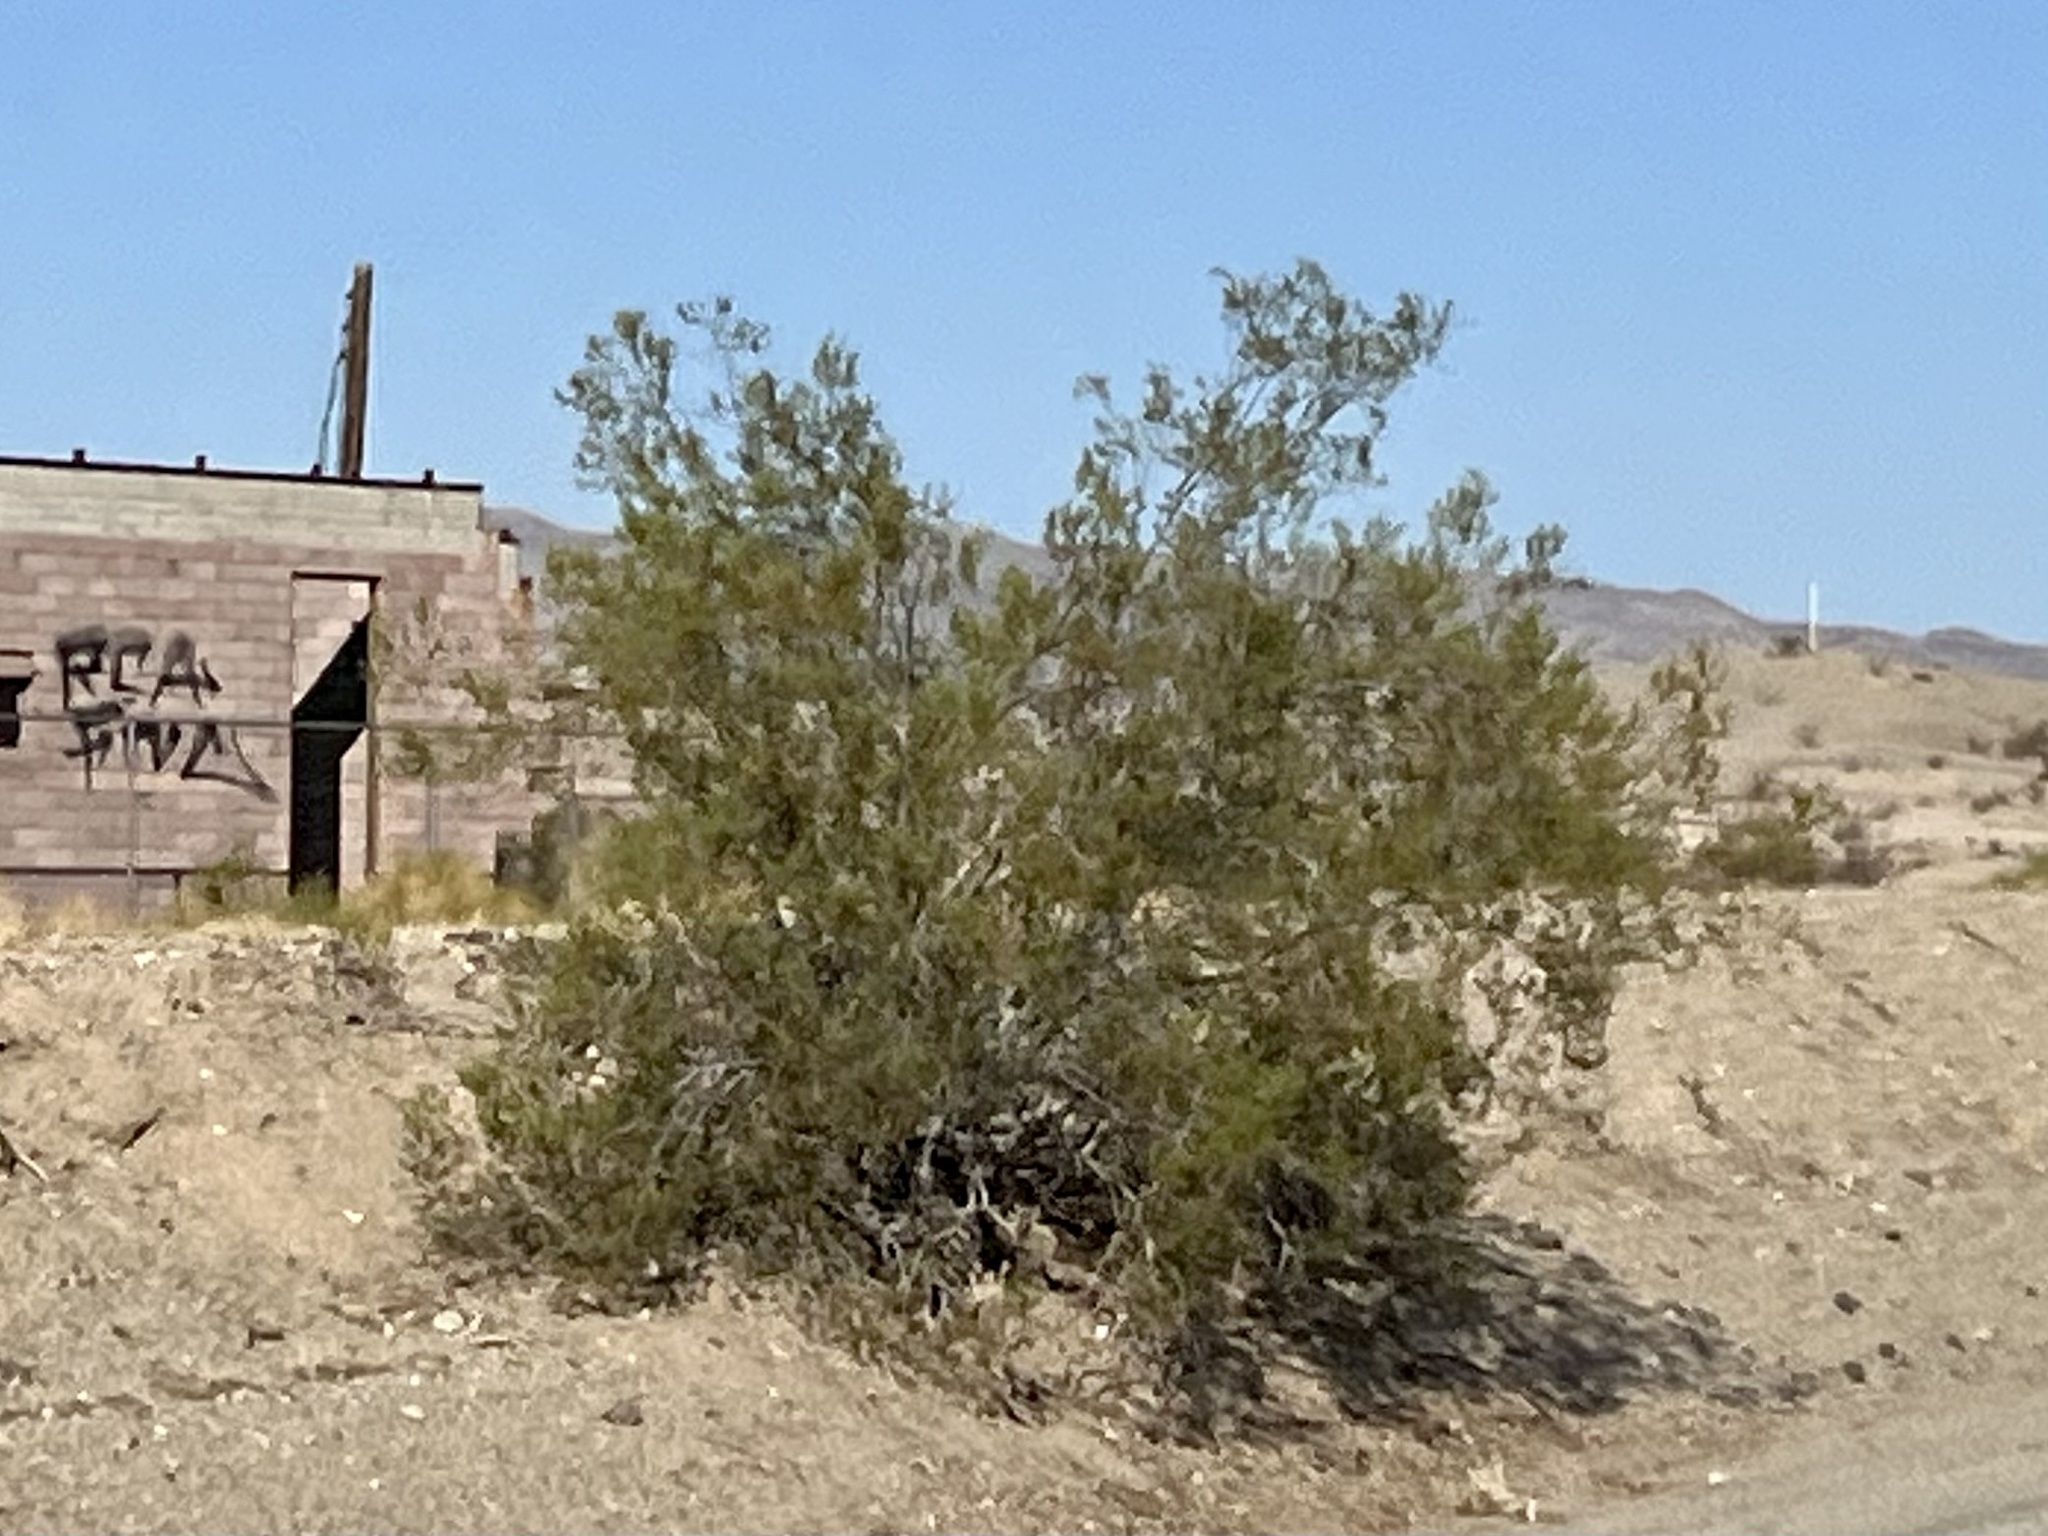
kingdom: Plantae
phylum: Tracheophyta
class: Magnoliopsida
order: Zygophyllales
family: Zygophyllaceae
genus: Larrea
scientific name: Larrea tridentata
